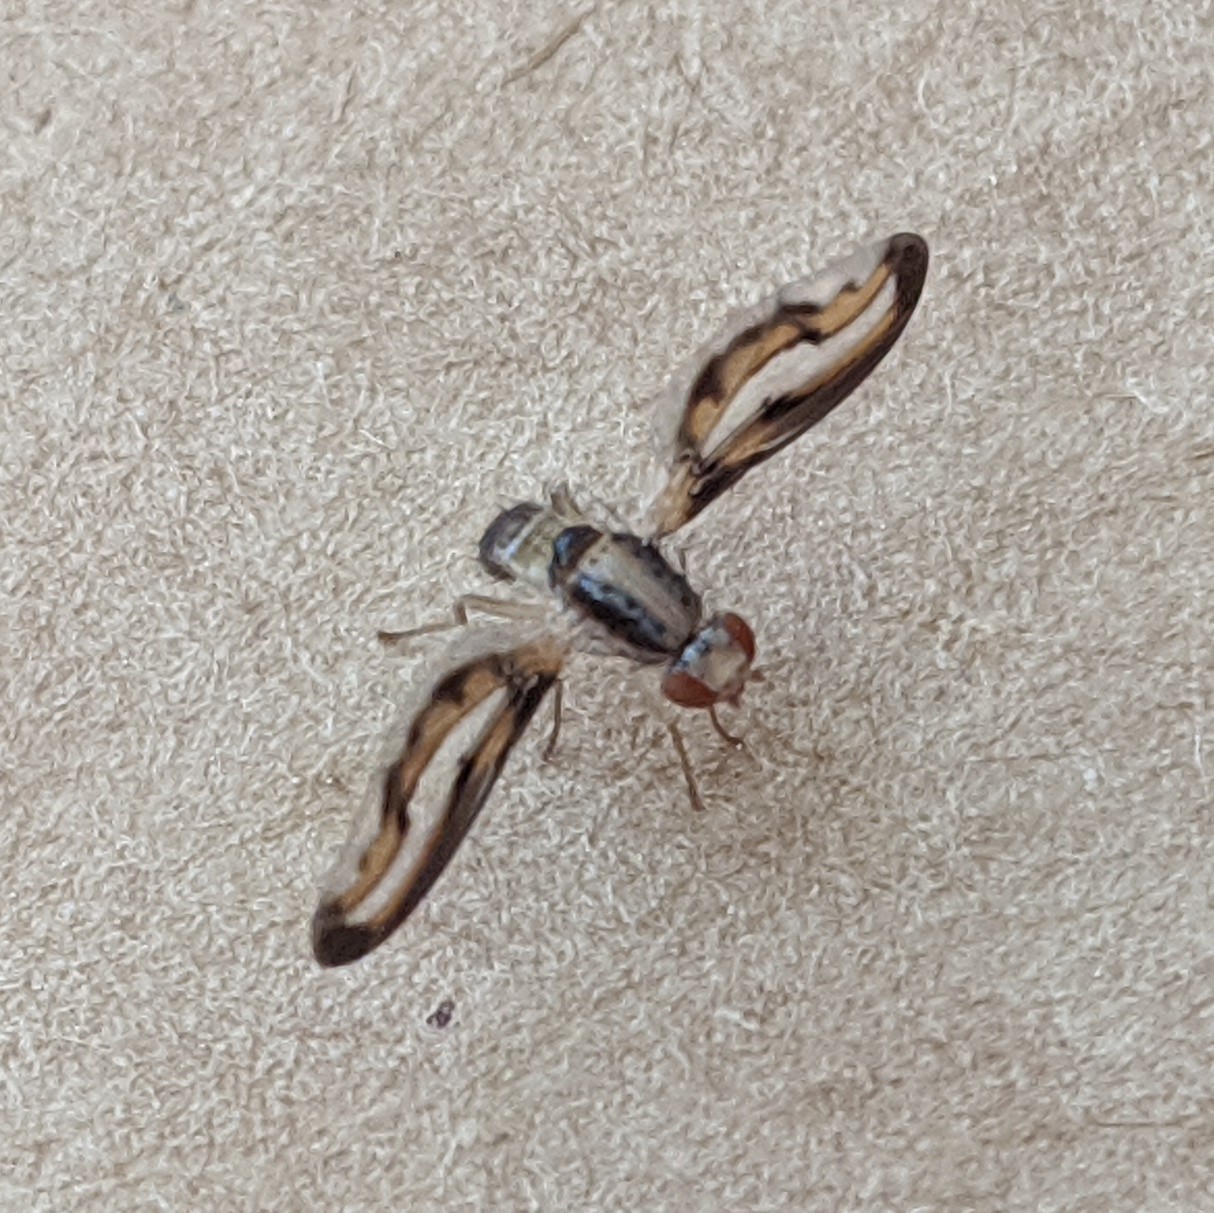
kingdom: Animalia
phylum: Arthropoda
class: Insecta
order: Diptera
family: Pallopteridae
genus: Toxonevra
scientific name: Toxonevra muliebris
